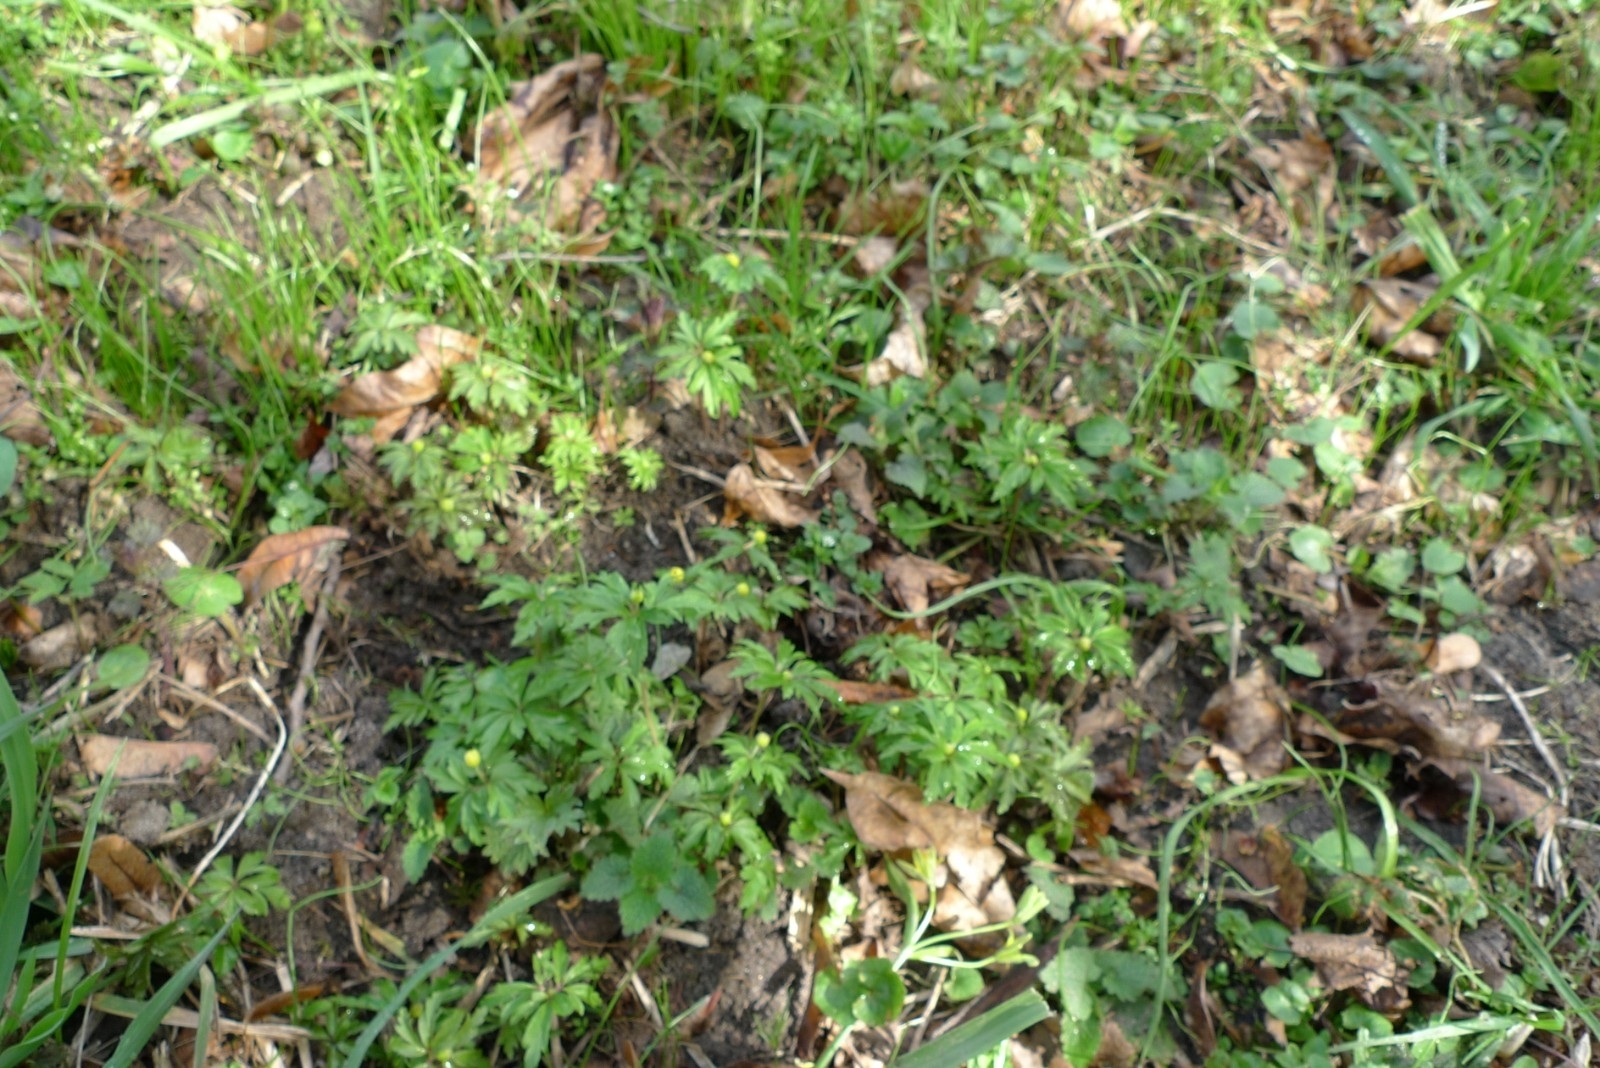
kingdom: Plantae
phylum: Tracheophyta
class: Magnoliopsida
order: Ranunculales
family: Ranunculaceae
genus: Anemone
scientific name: Anemone ranunculoides
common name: Yellow anemone
